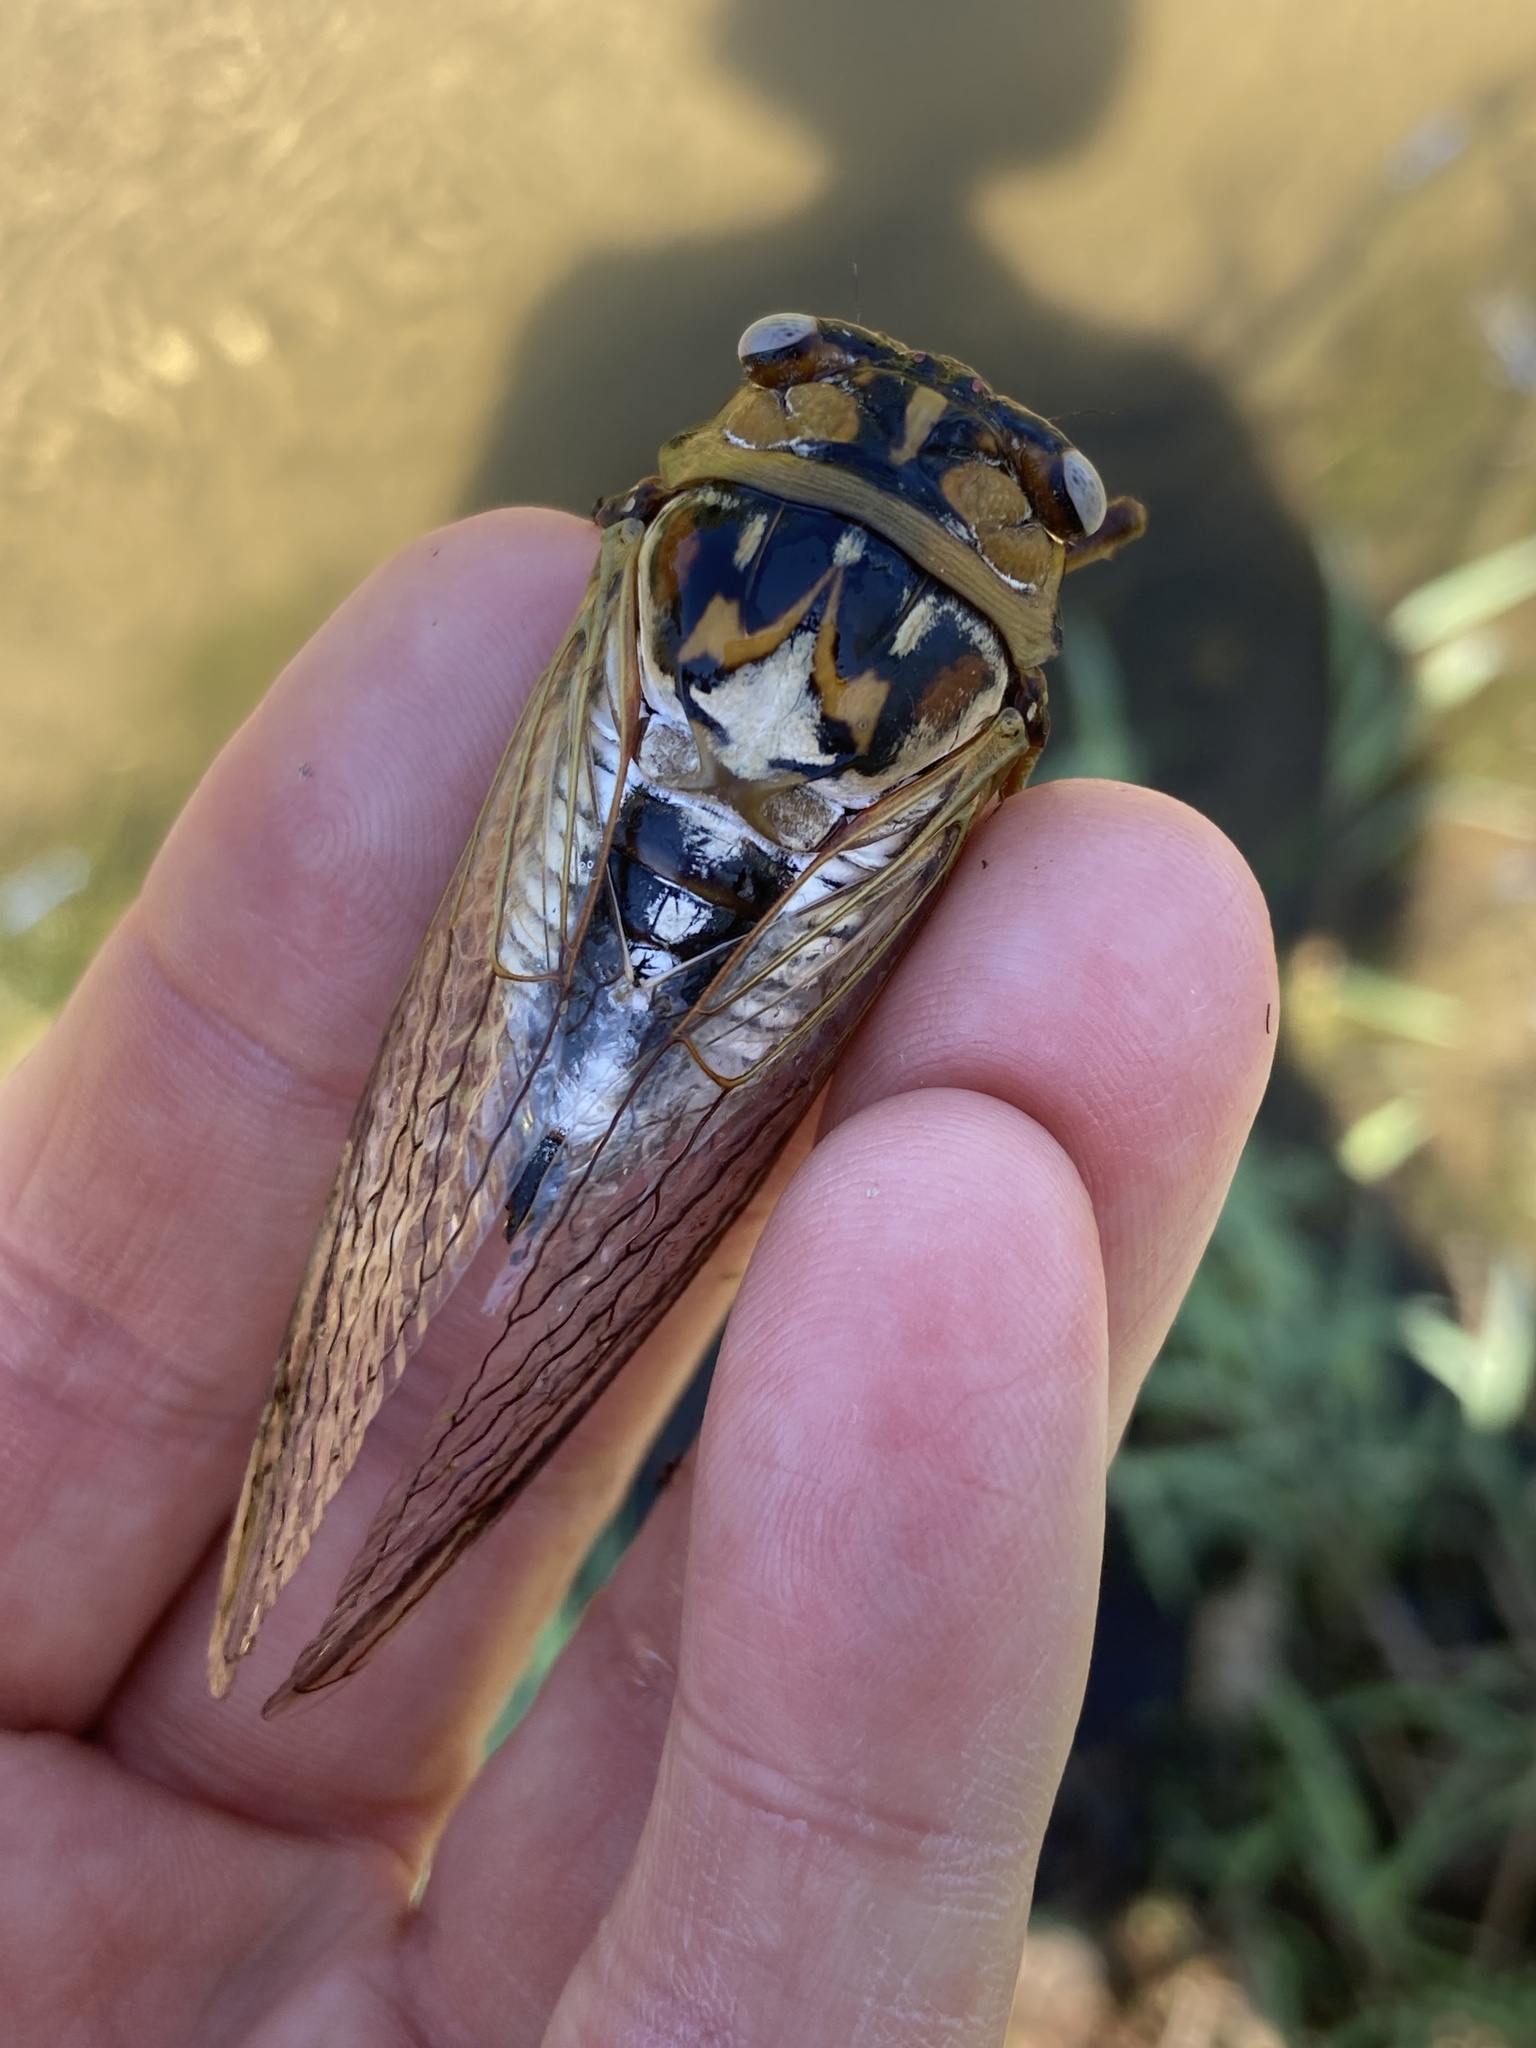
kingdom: Animalia
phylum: Arthropoda
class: Insecta
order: Hemiptera
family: Cicadidae
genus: Megatibicen
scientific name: Megatibicen dealbatus
